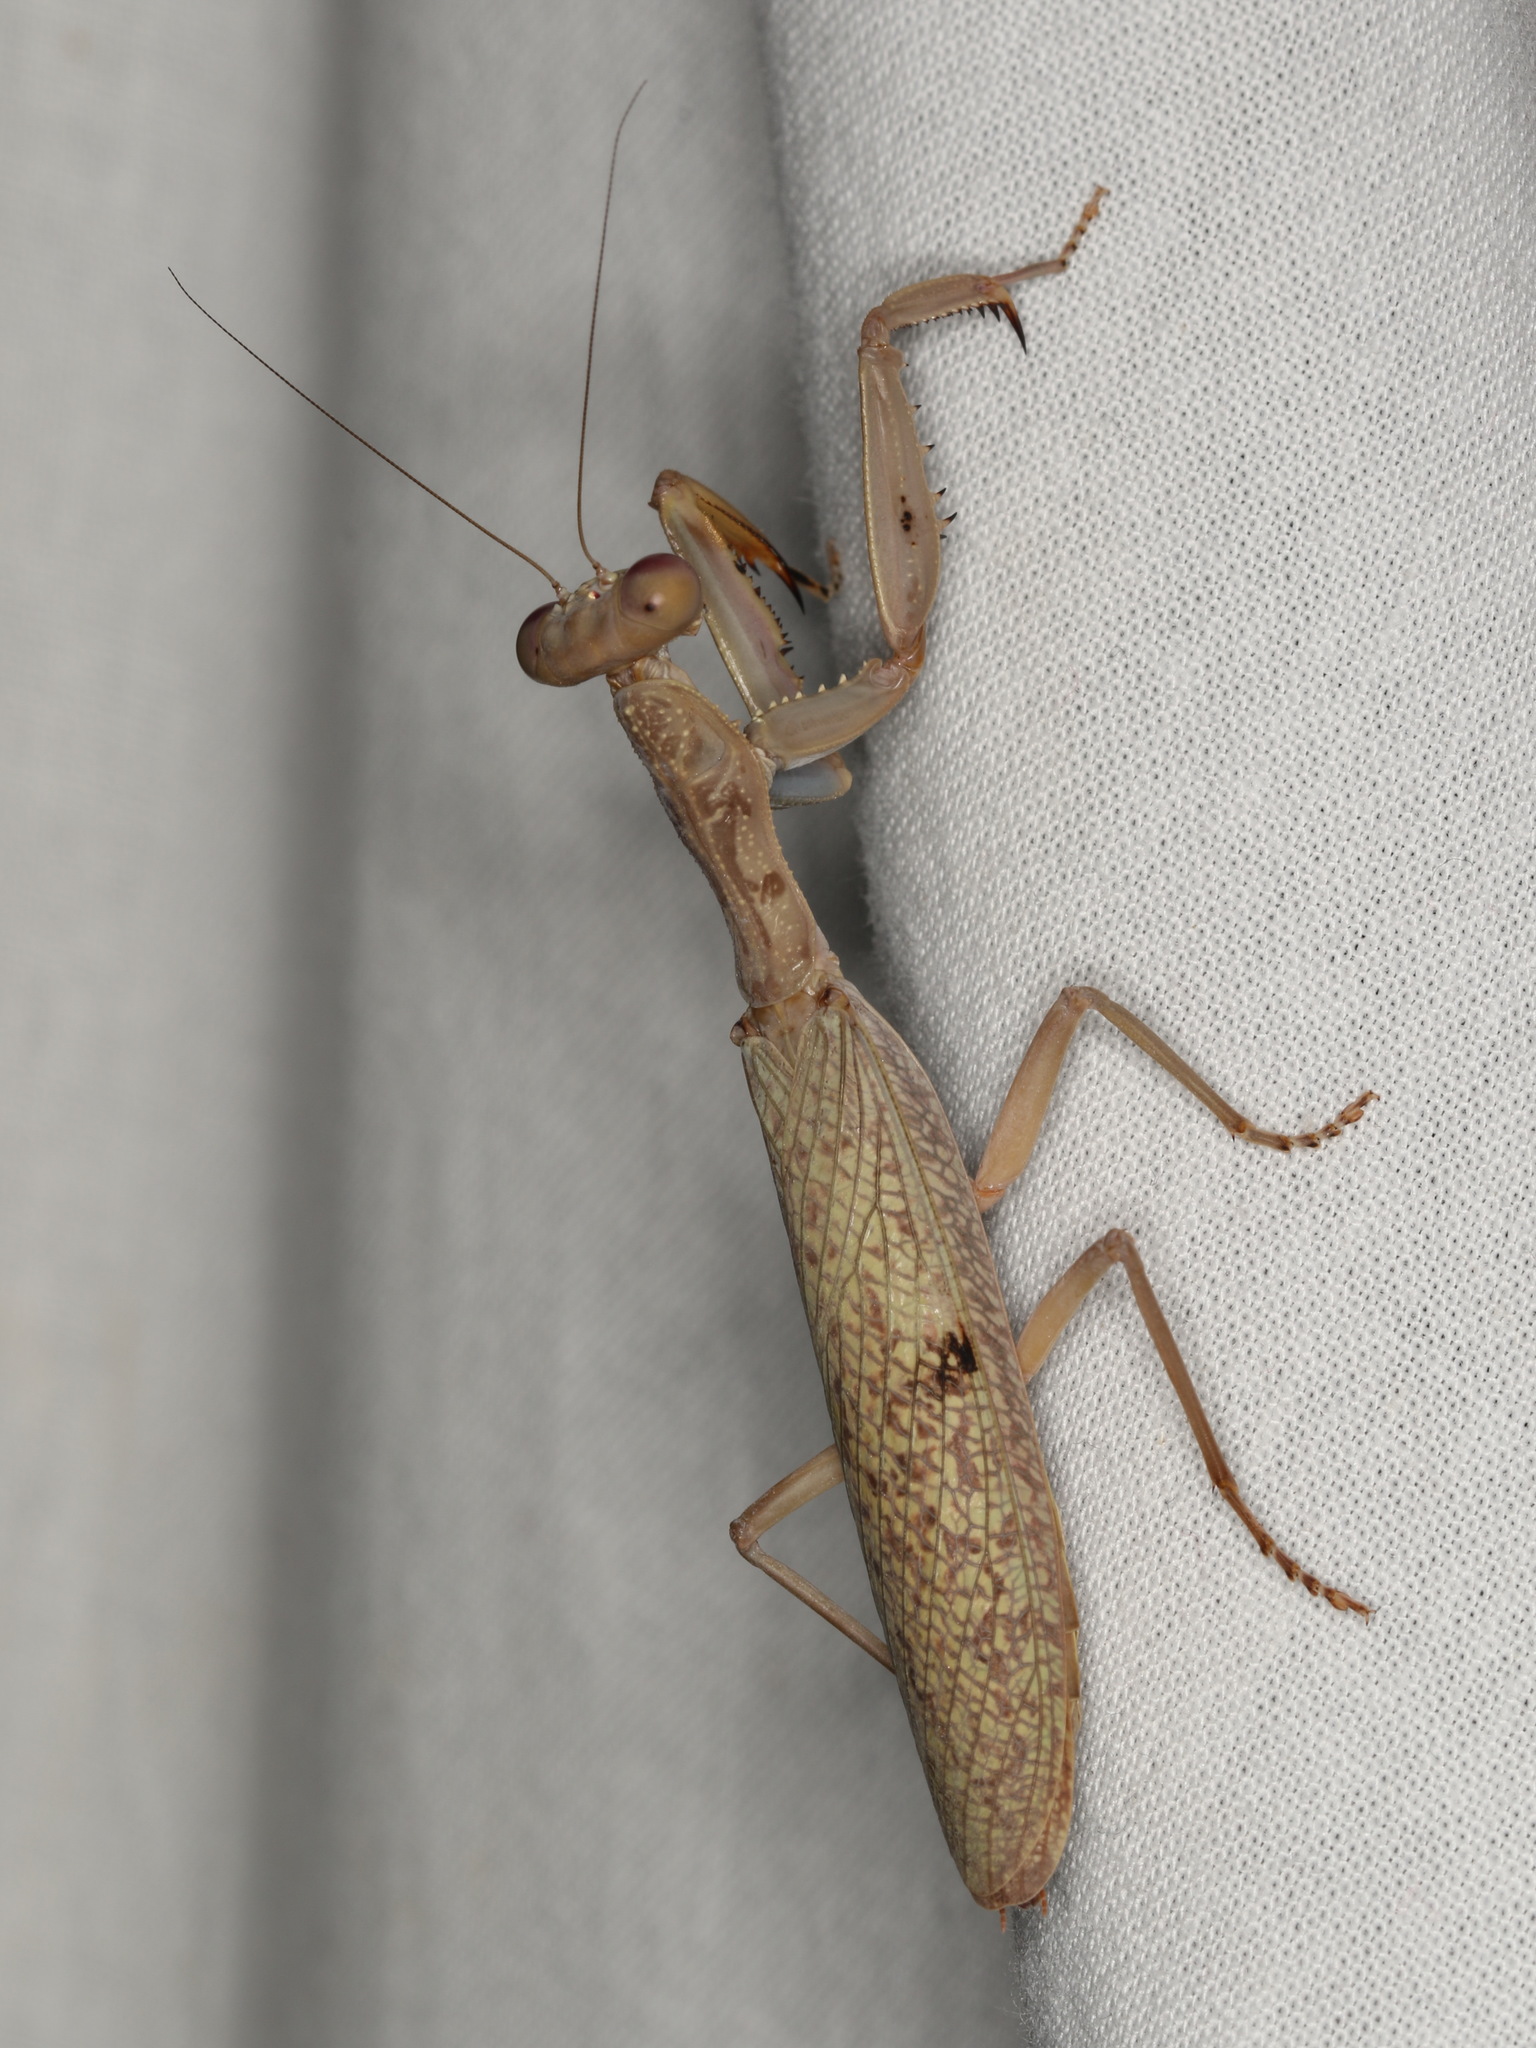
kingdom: Animalia
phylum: Arthropoda
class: Insecta
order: Mantodea
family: Mantidae
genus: Sphodropoda
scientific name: Sphodropoda tristis
